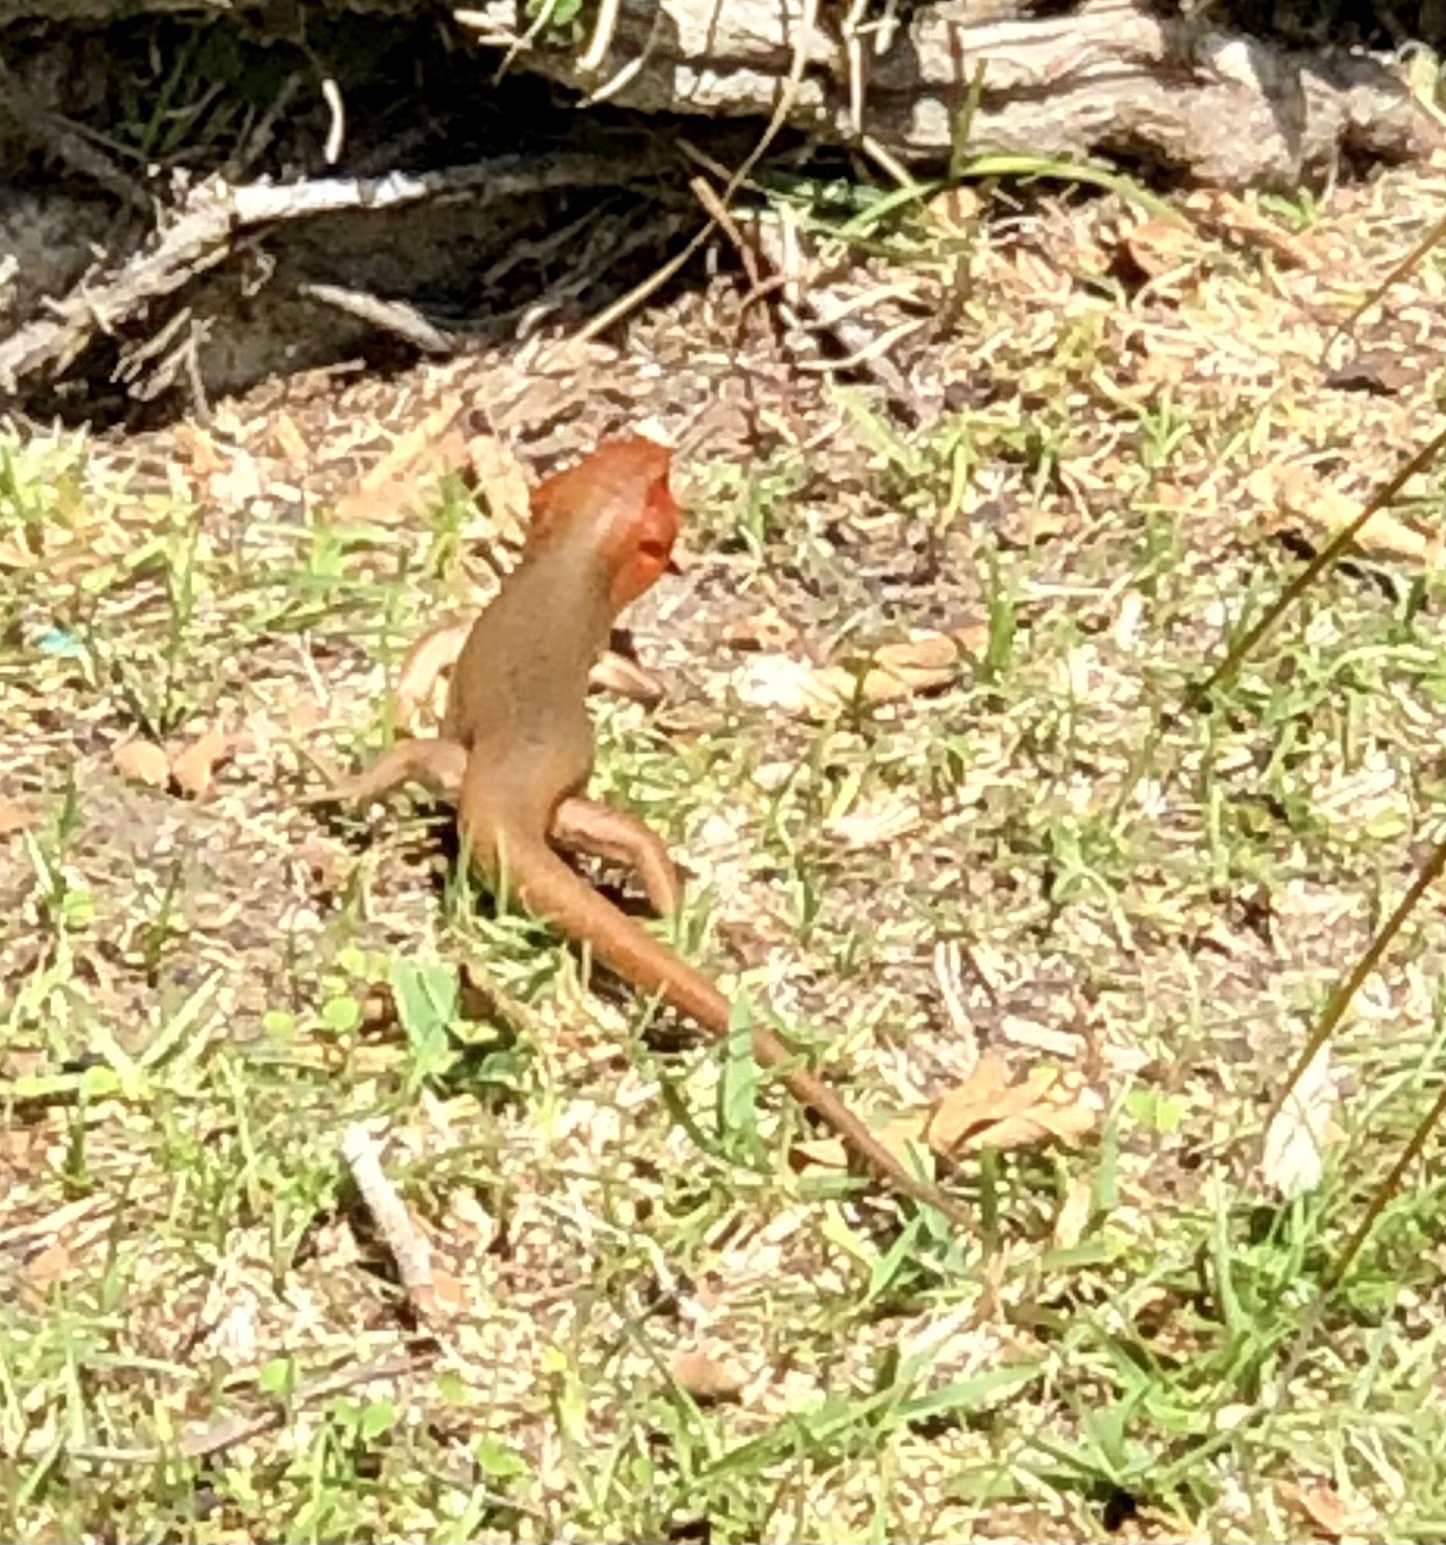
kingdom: Animalia
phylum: Chordata
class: Squamata
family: Scincidae
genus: Plestiodon
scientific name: Plestiodon laticeps
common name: Broadhead skink
